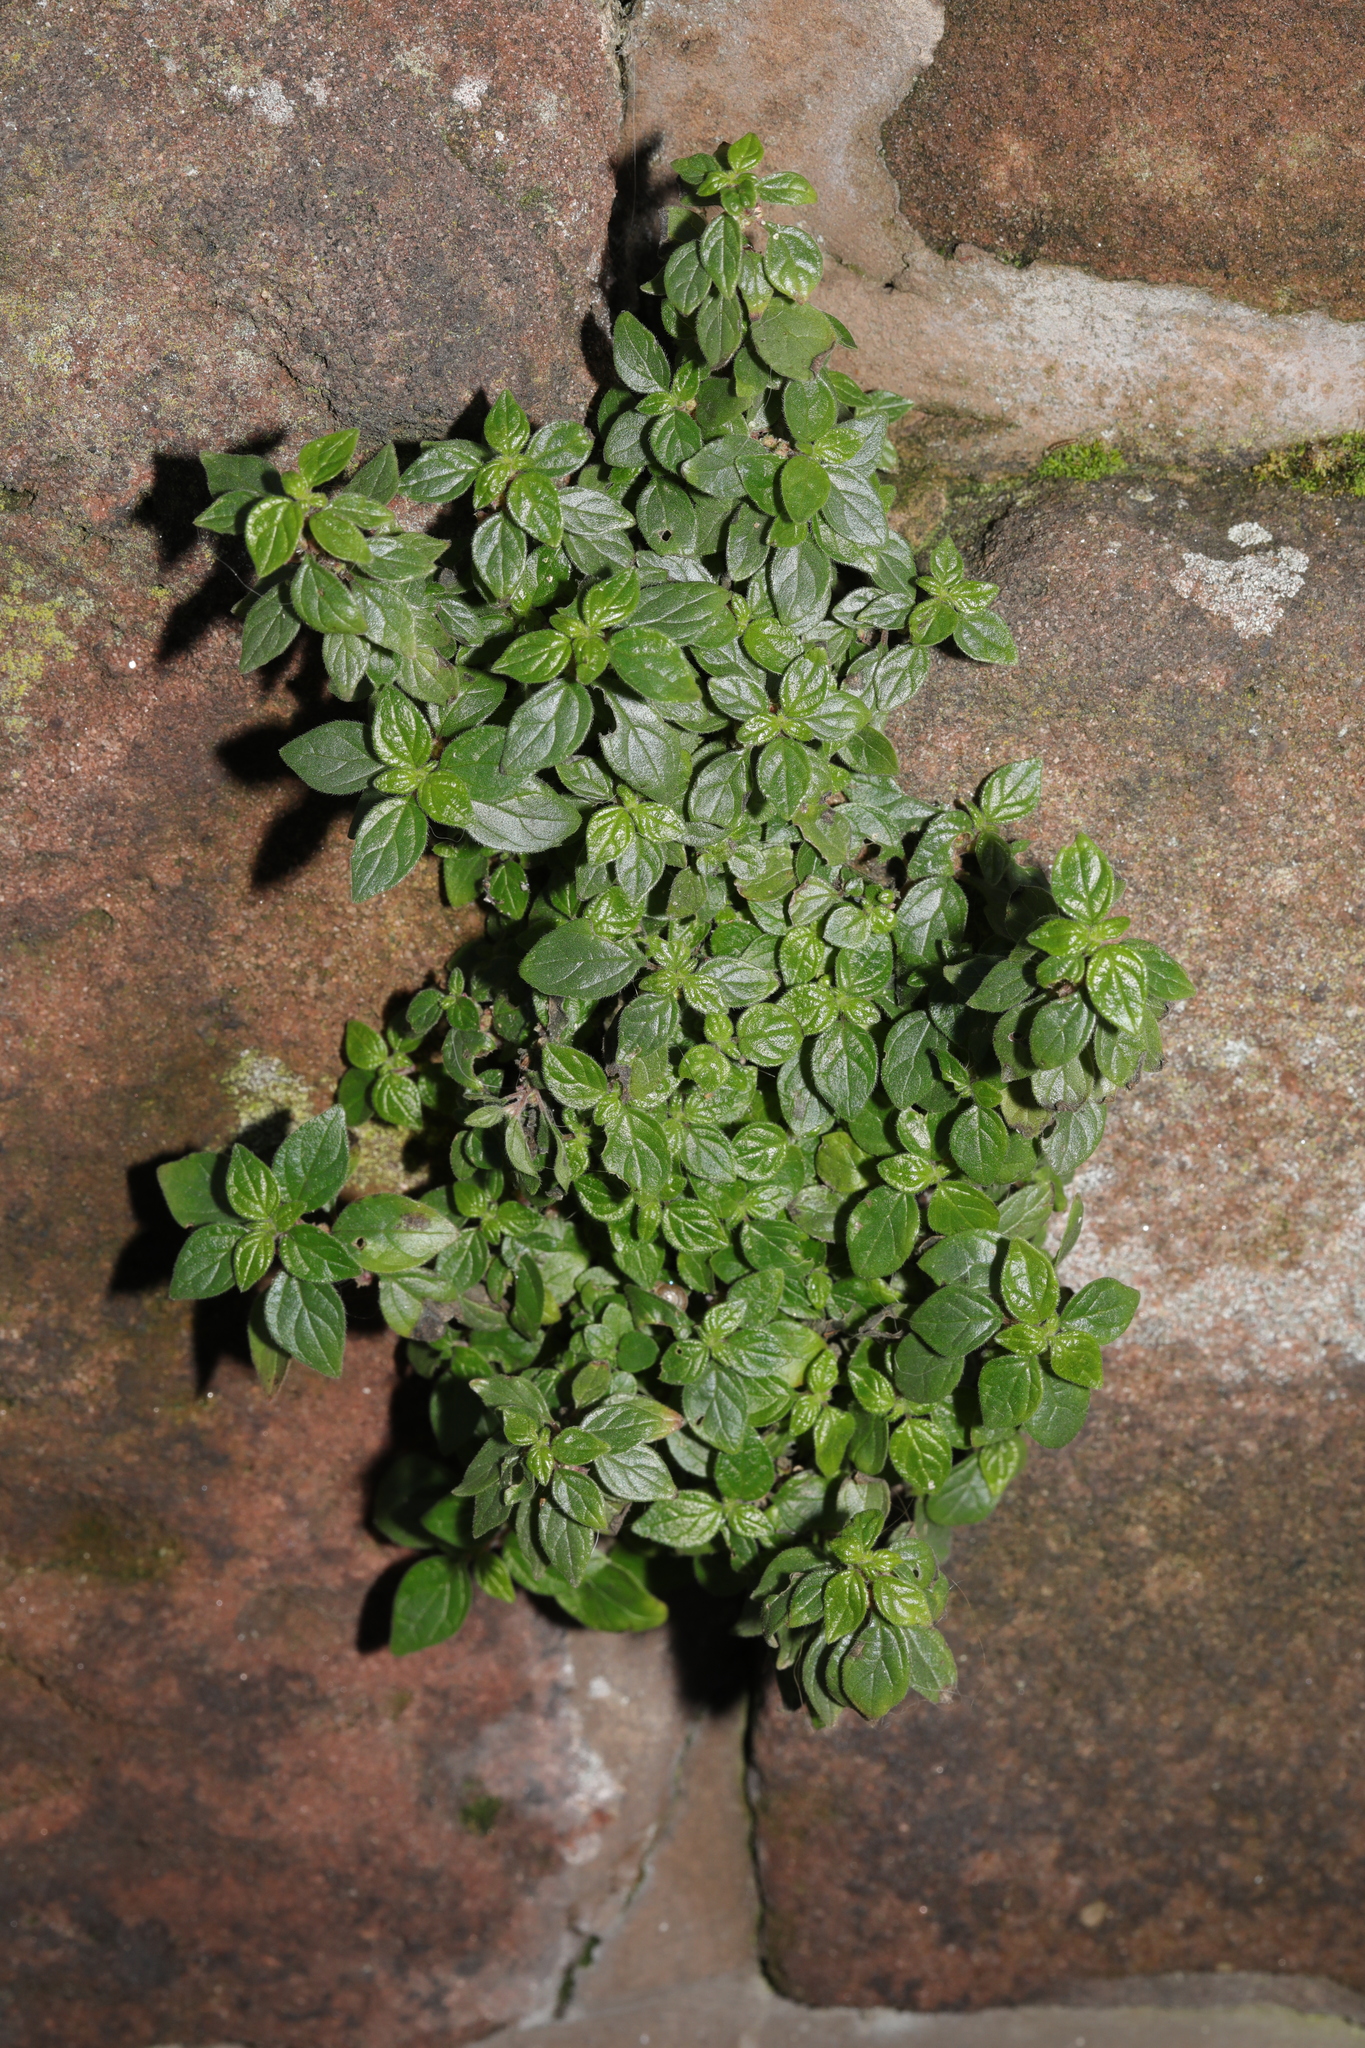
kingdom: Plantae
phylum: Tracheophyta
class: Magnoliopsida
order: Rosales
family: Urticaceae
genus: Parietaria
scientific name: Parietaria judaica
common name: Pellitory-of-the-wall
